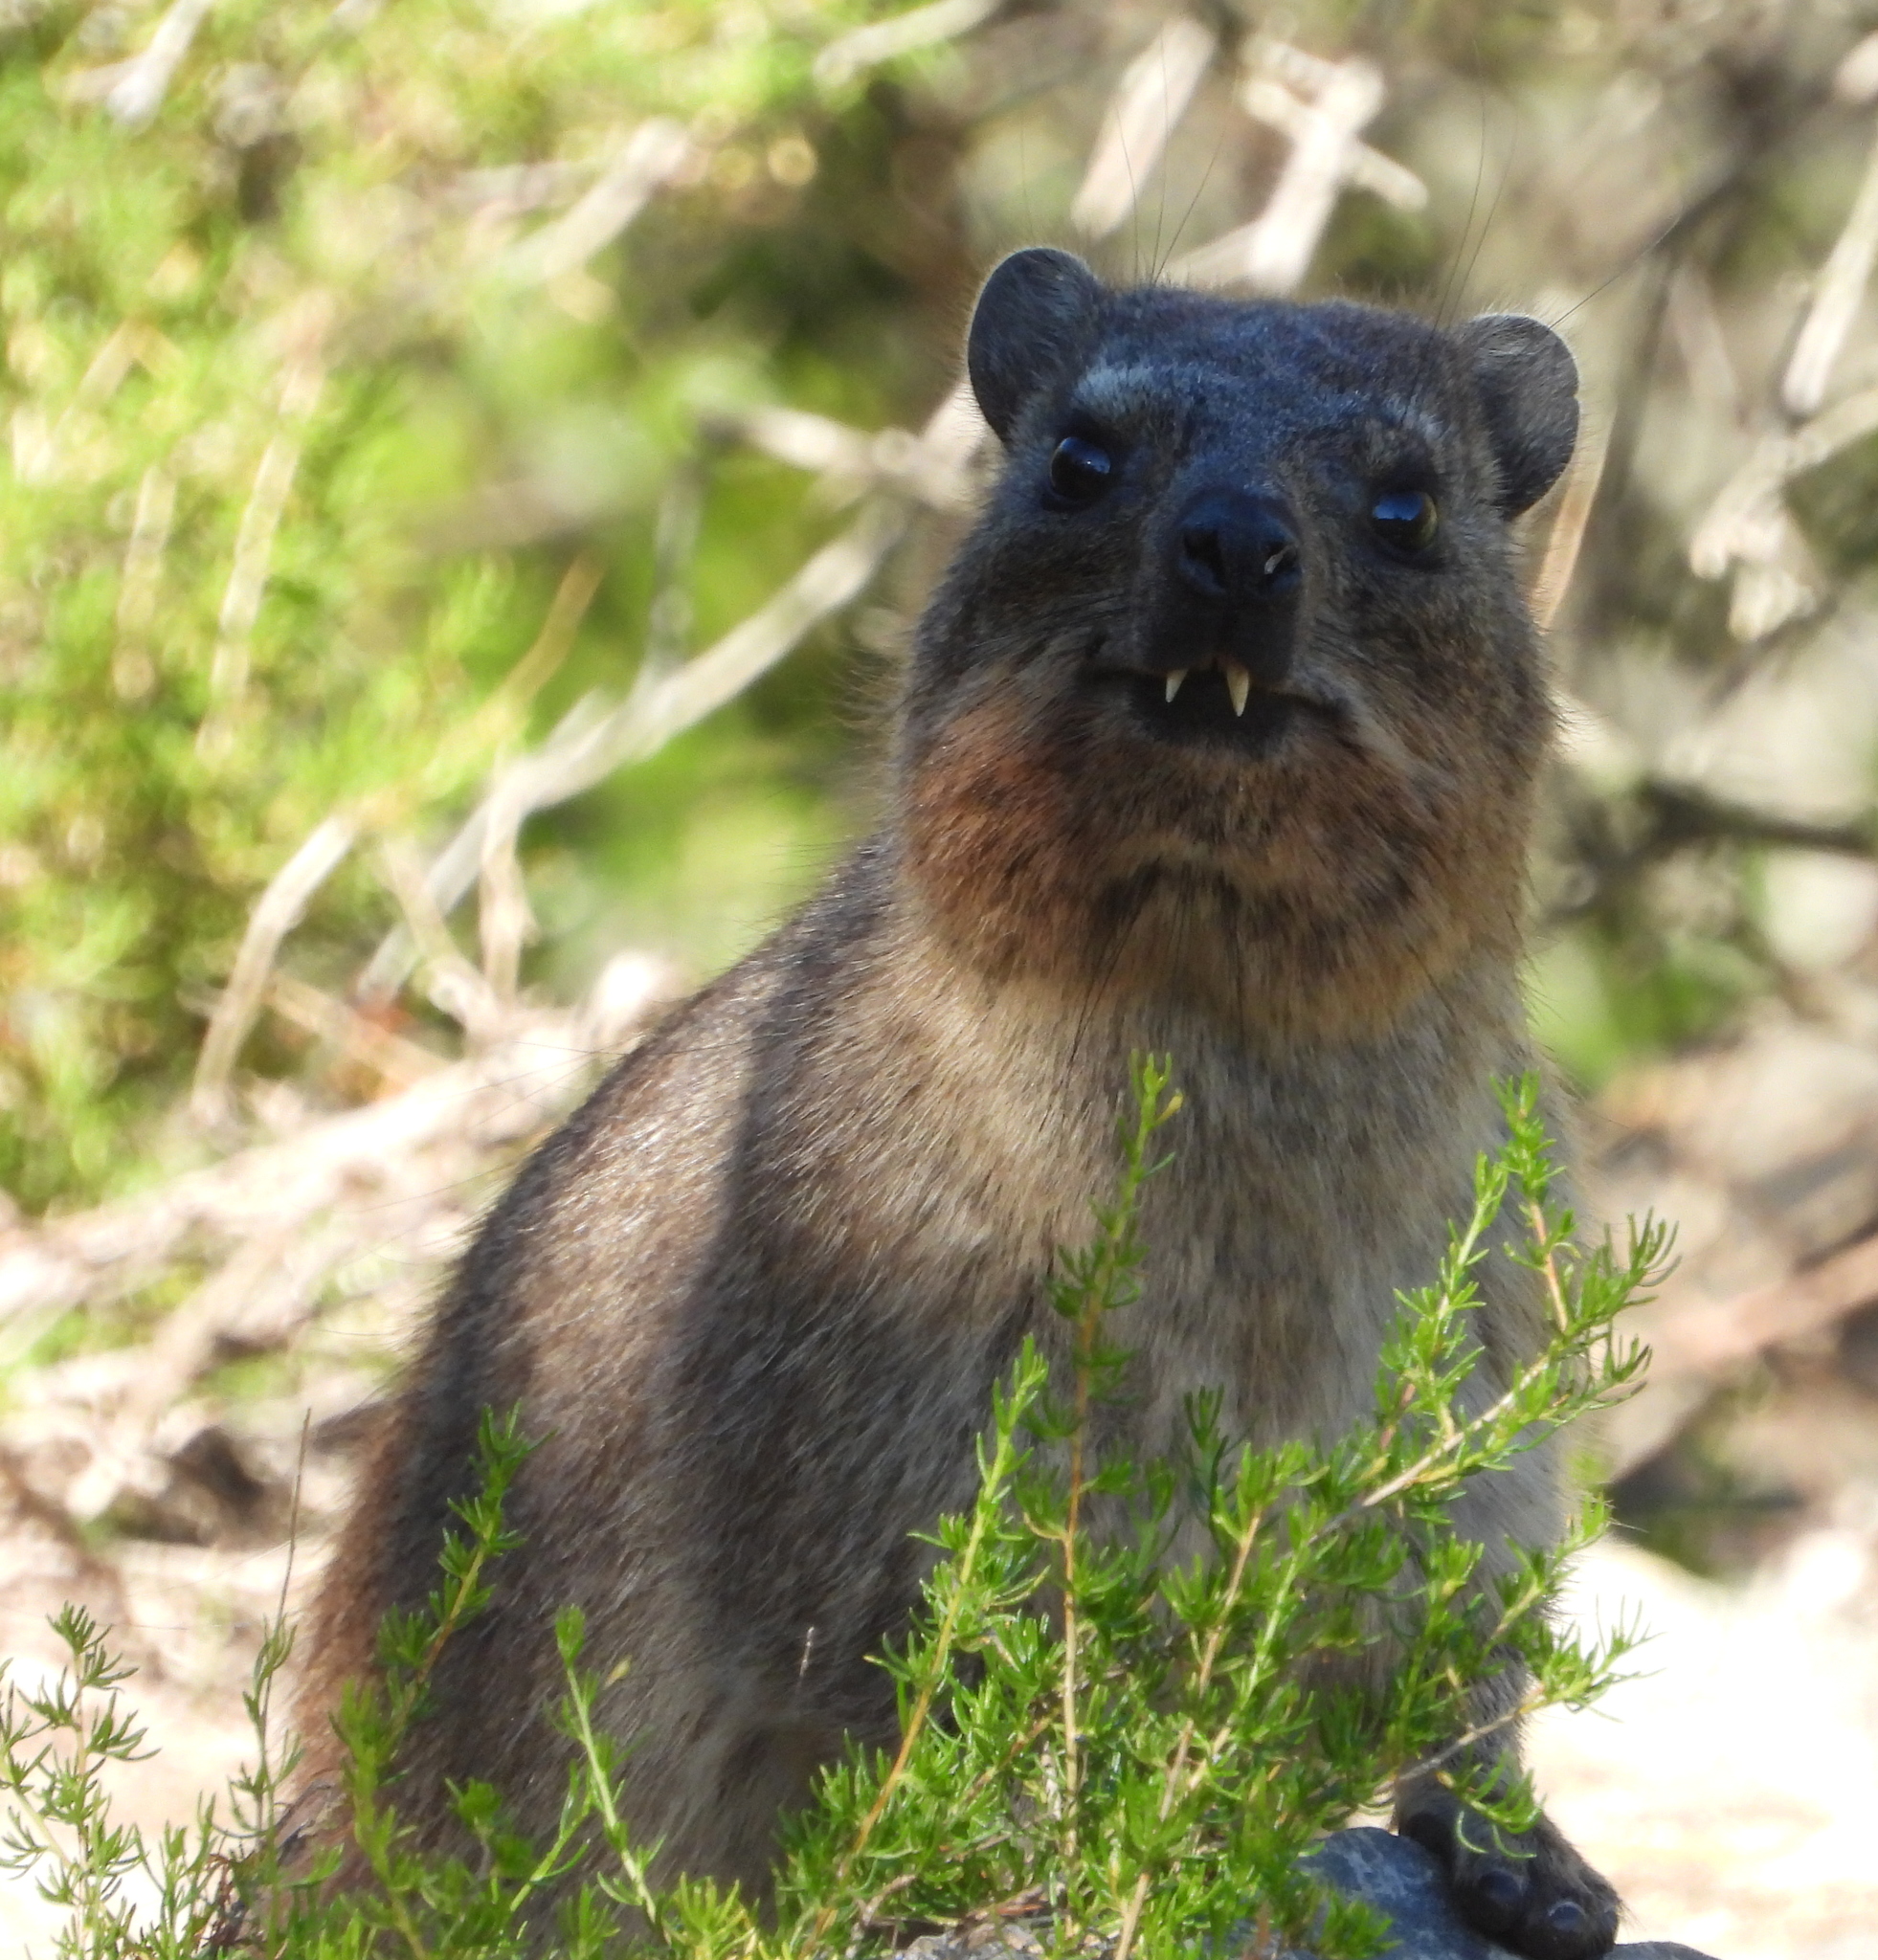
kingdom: Animalia
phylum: Chordata
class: Mammalia
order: Hyracoidea
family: Procaviidae
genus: Procavia
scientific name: Procavia capensis
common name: Rock hyrax
